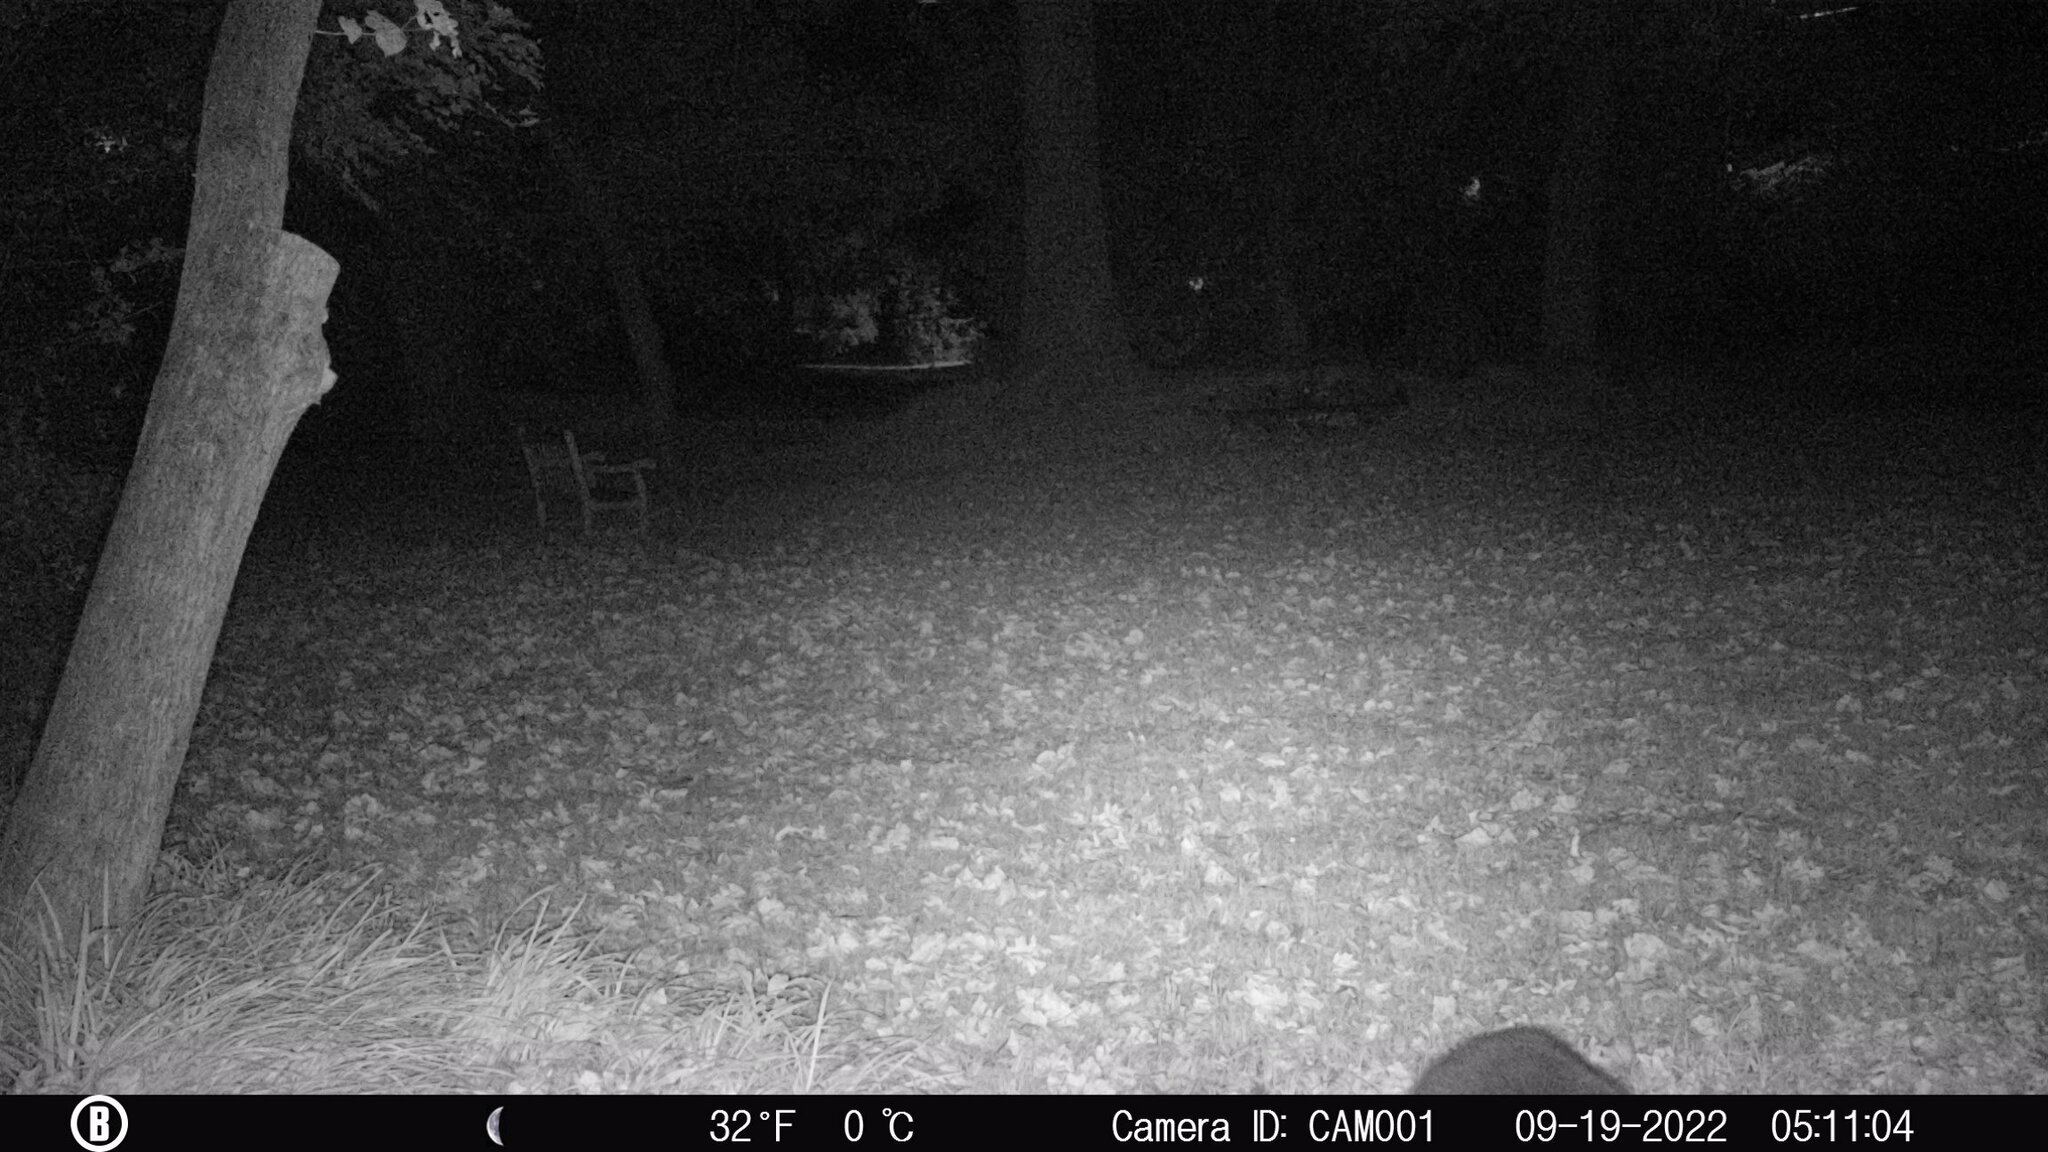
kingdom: Animalia
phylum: Chordata
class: Mammalia
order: Carnivora
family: Procyonidae
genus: Procyon
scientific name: Procyon lotor
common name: Raccoon
